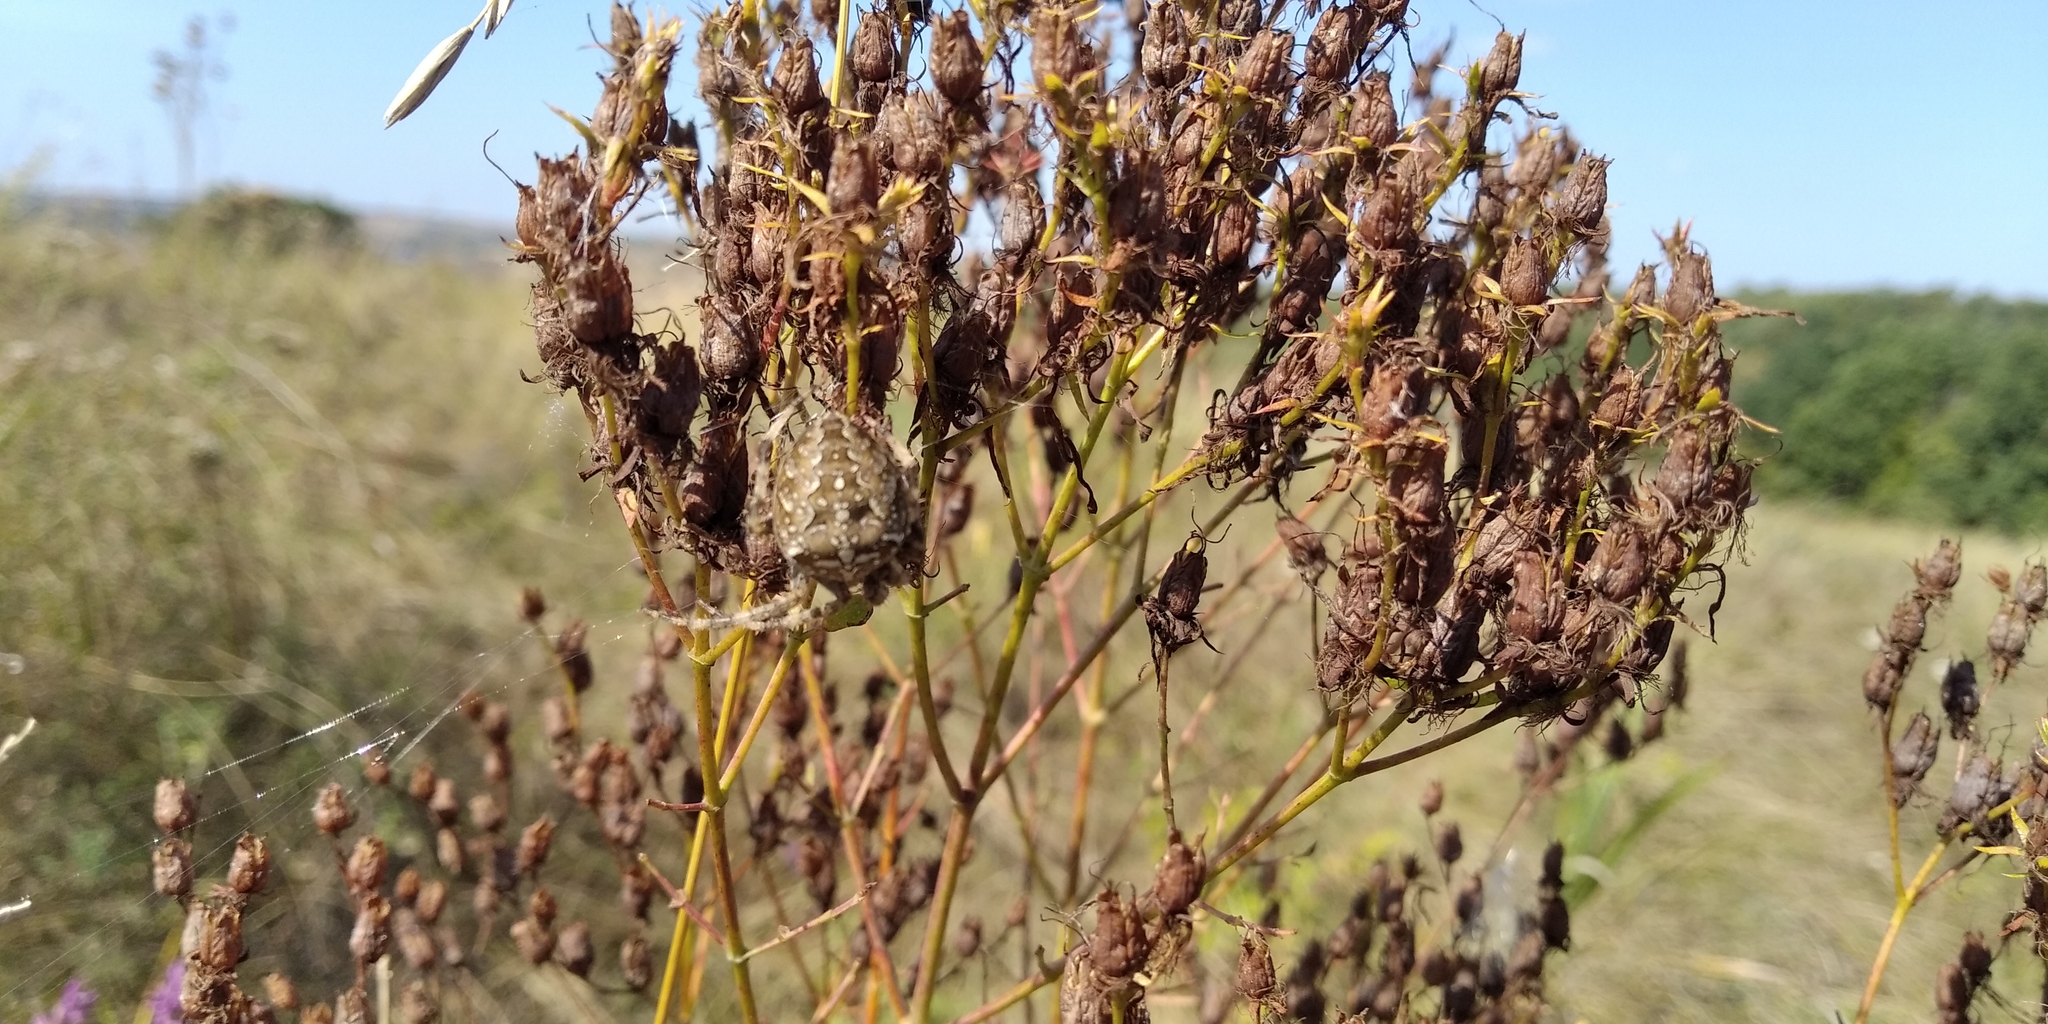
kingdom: Plantae
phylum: Tracheophyta
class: Magnoliopsida
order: Malpighiales
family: Hypericaceae
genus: Hypericum
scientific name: Hypericum perforatum
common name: Common st. johnswort
